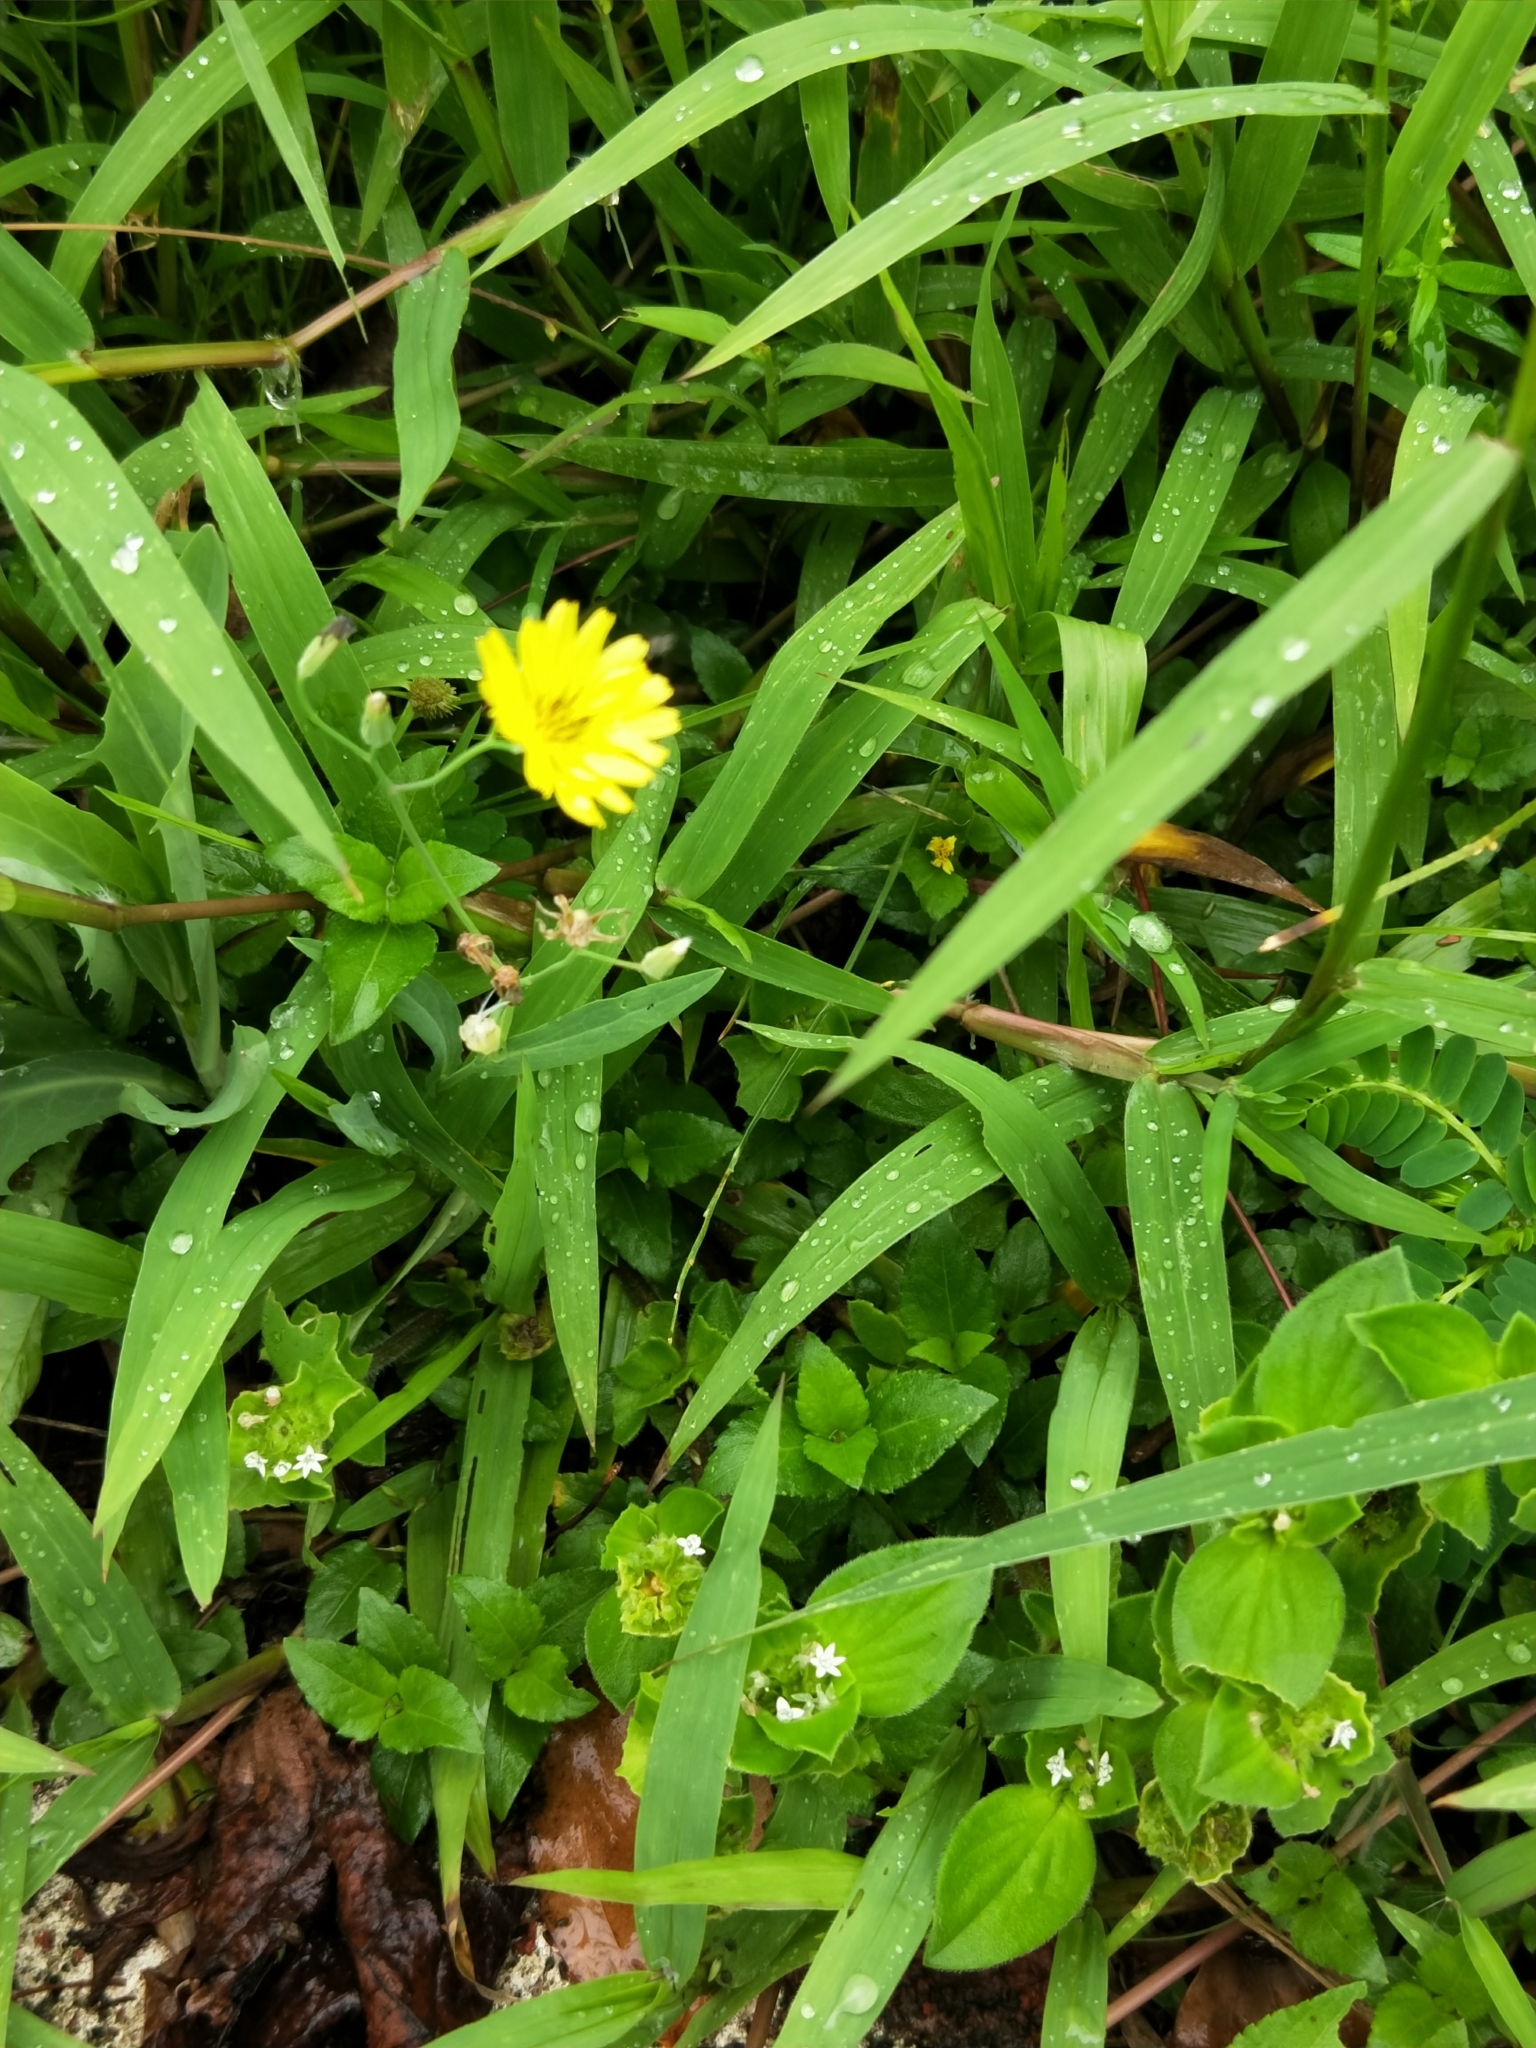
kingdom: Plantae
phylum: Tracheophyta
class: Magnoliopsida
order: Asterales
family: Asteraceae
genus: Ixeris
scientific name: Ixeris chinensis
